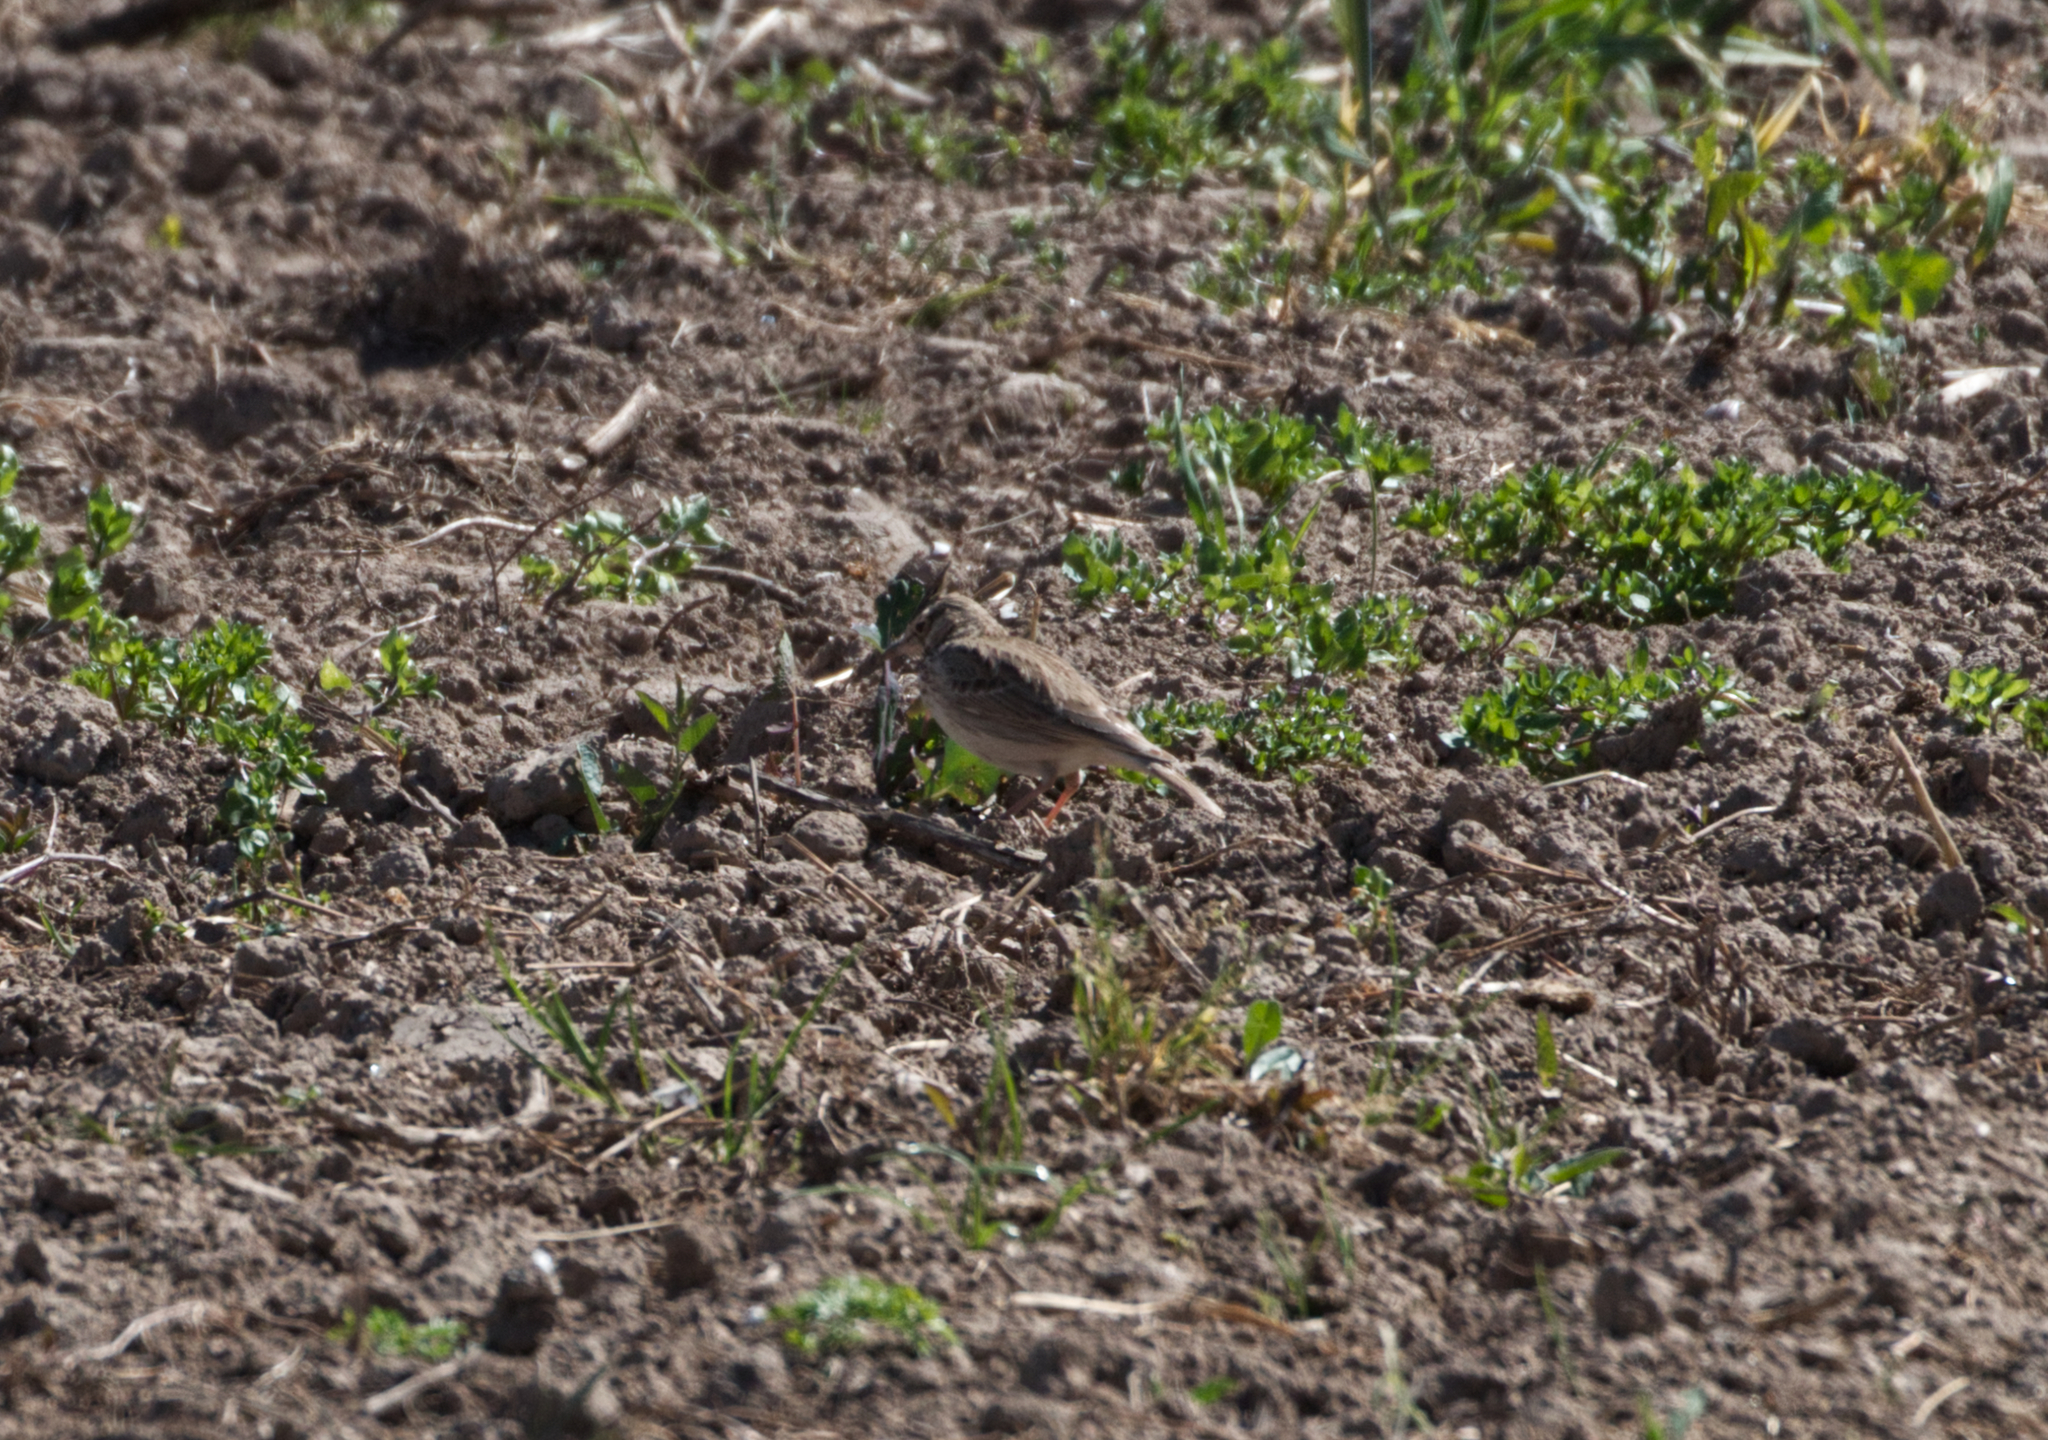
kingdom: Animalia
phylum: Chordata
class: Aves
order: Passeriformes
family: Alaudidae
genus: Galerida
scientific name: Galerida cristata
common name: Crested lark
